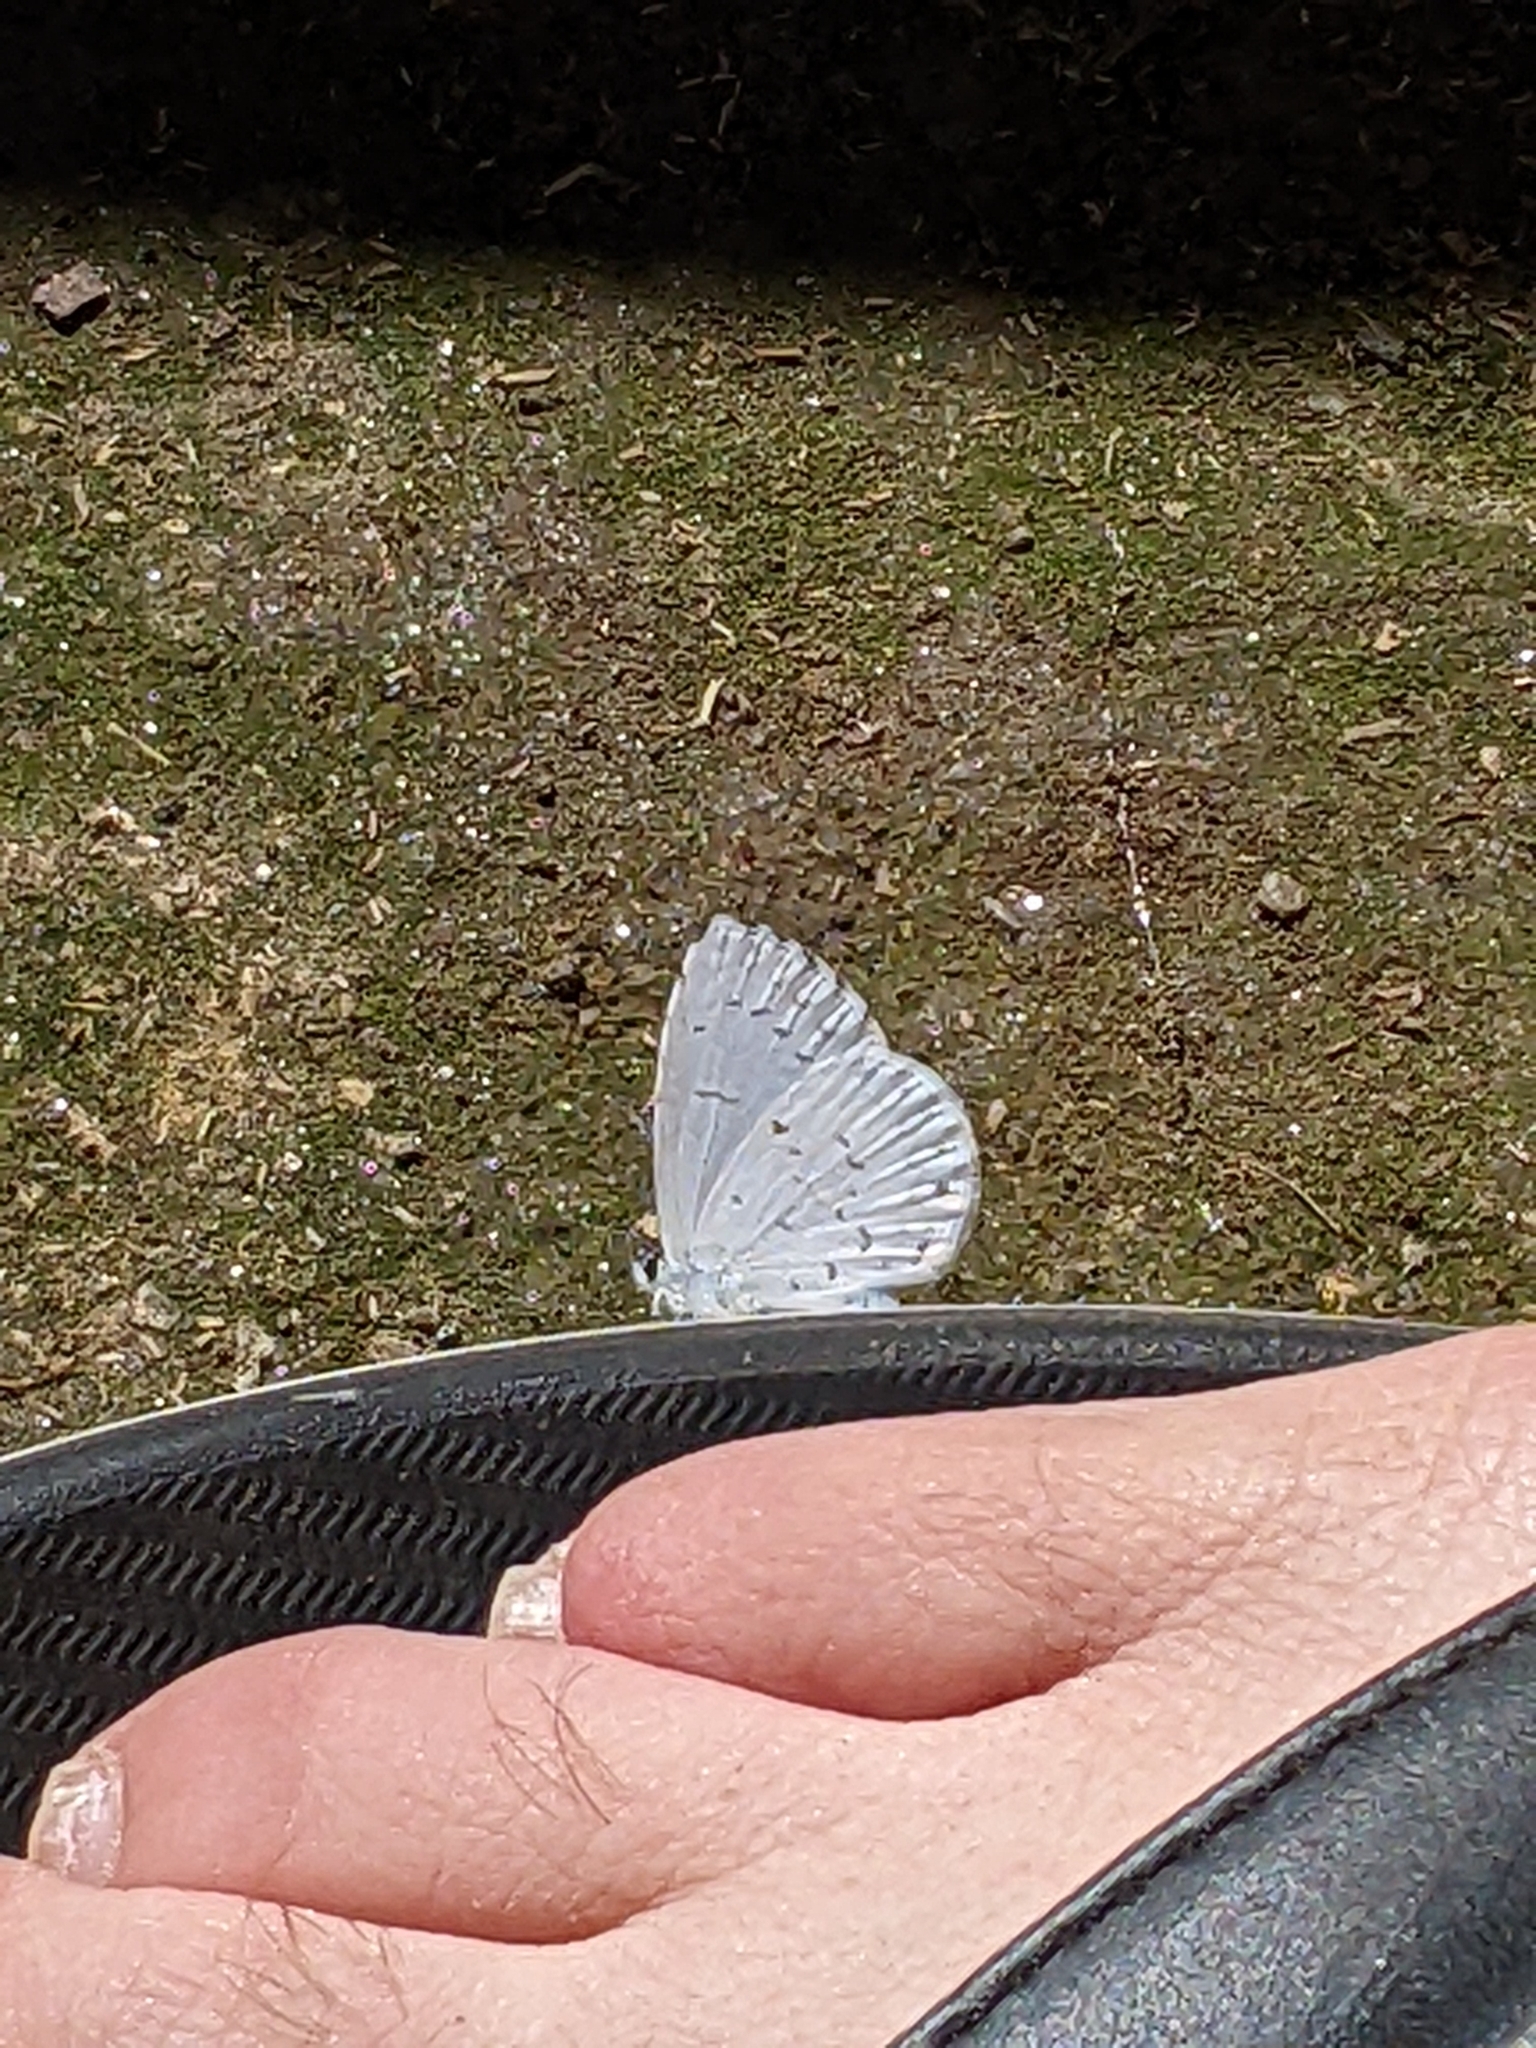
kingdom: Animalia
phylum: Arthropoda
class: Insecta
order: Lepidoptera
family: Lycaenidae
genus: Elkalyce
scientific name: Elkalyce comyntas
